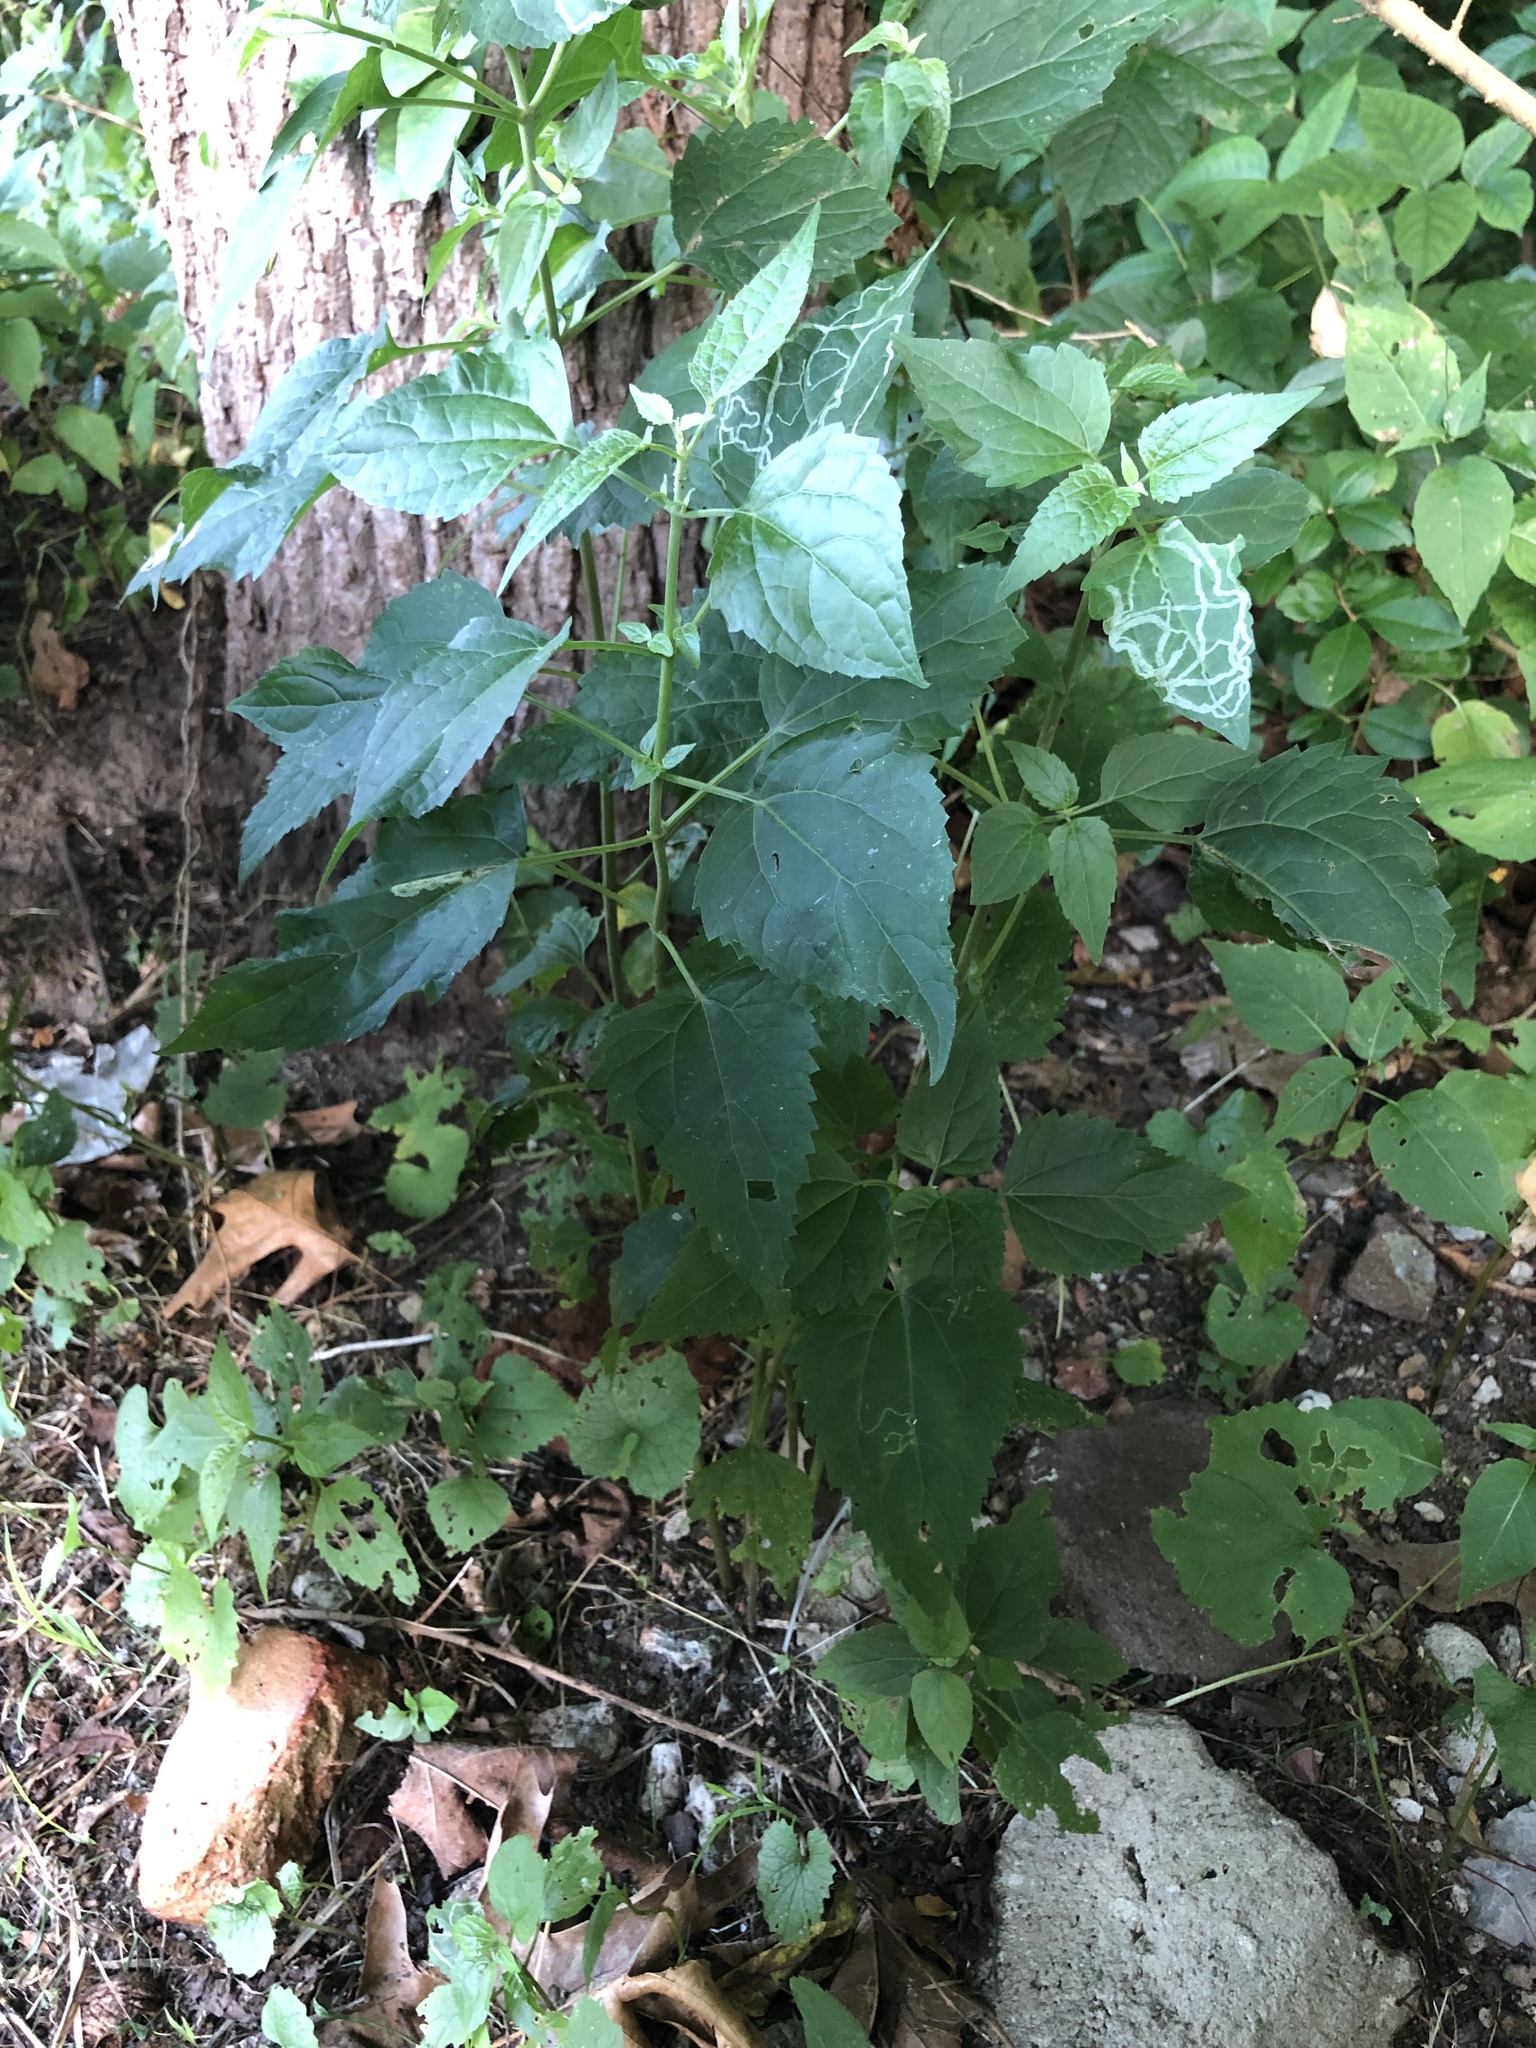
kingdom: Plantae
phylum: Tracheophyta
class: Magnoliopsida
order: Asterales
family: Asteraceae
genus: Ageratina
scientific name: Ageratina altissima
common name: White snakeroot
